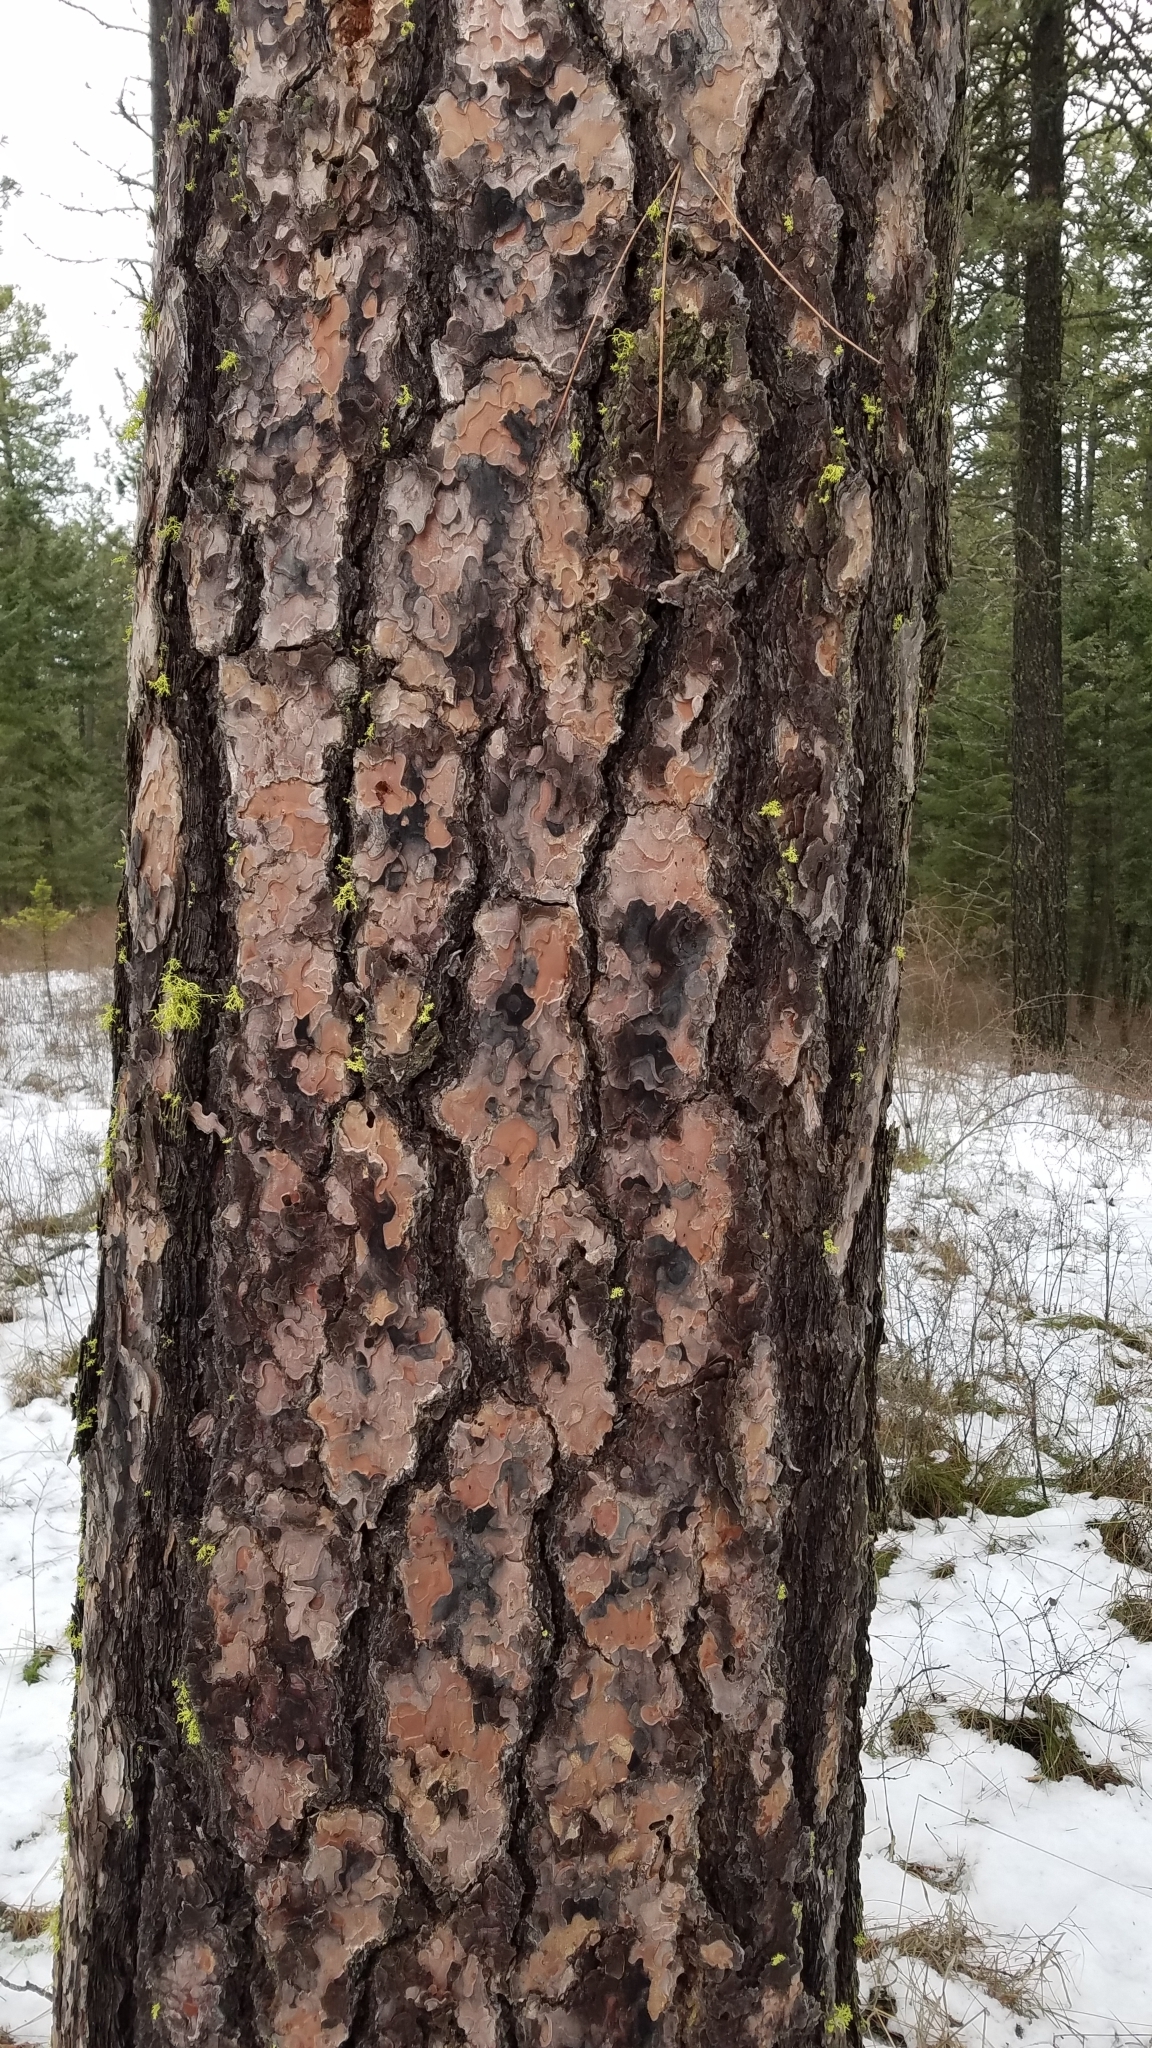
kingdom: Plantae
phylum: Tracheophyta
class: Pinopsida
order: Pinales
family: Pinaceae
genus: Pinus
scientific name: Pinus ponderosa
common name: Western yellow-pine
